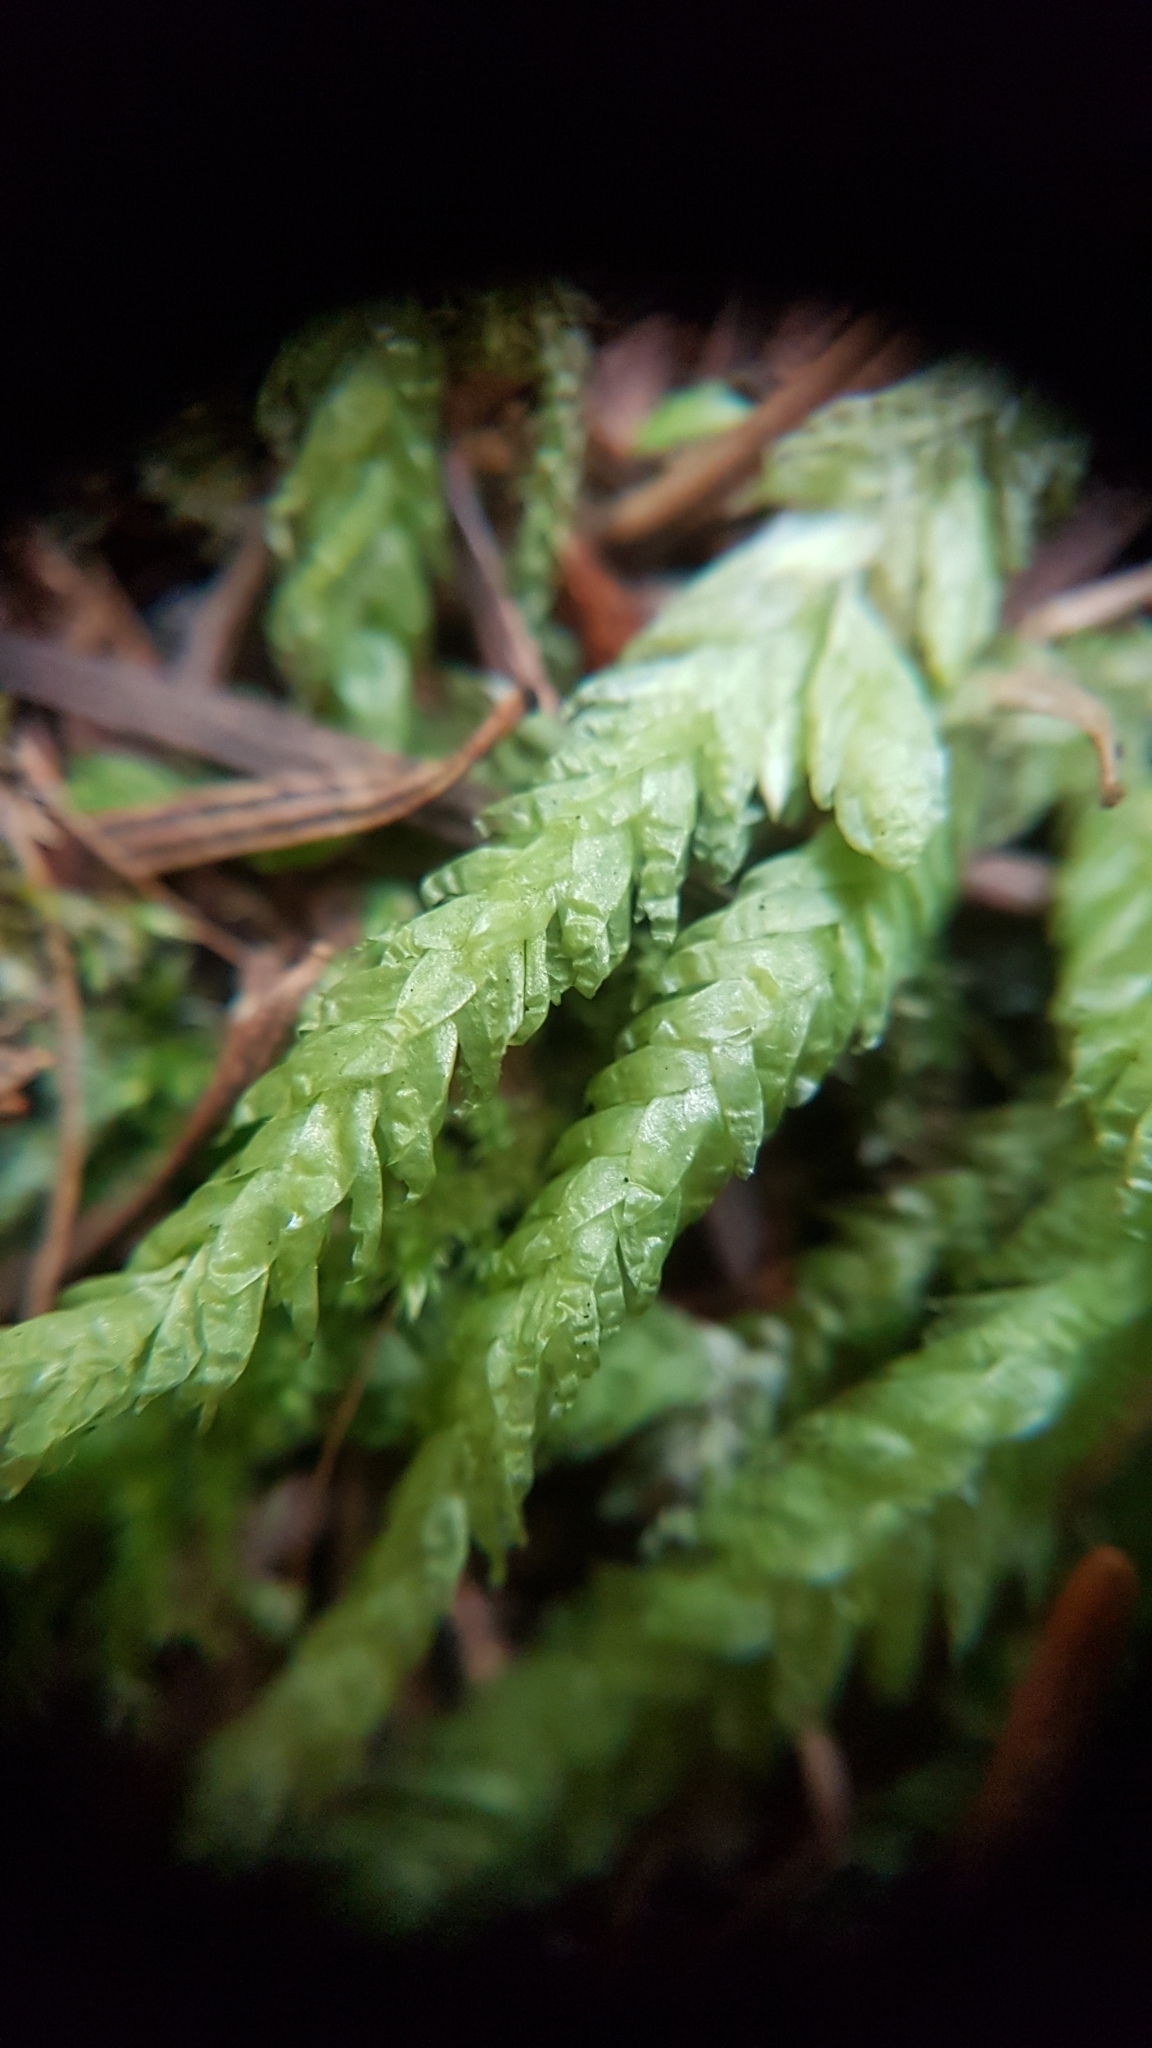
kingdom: Plantae
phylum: Bryophyta
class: Bryopsida
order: Hypnales
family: Plagiotheciaceae
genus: Plagiothecium
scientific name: Plagiothecium undulatum
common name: Waved silk-moss
